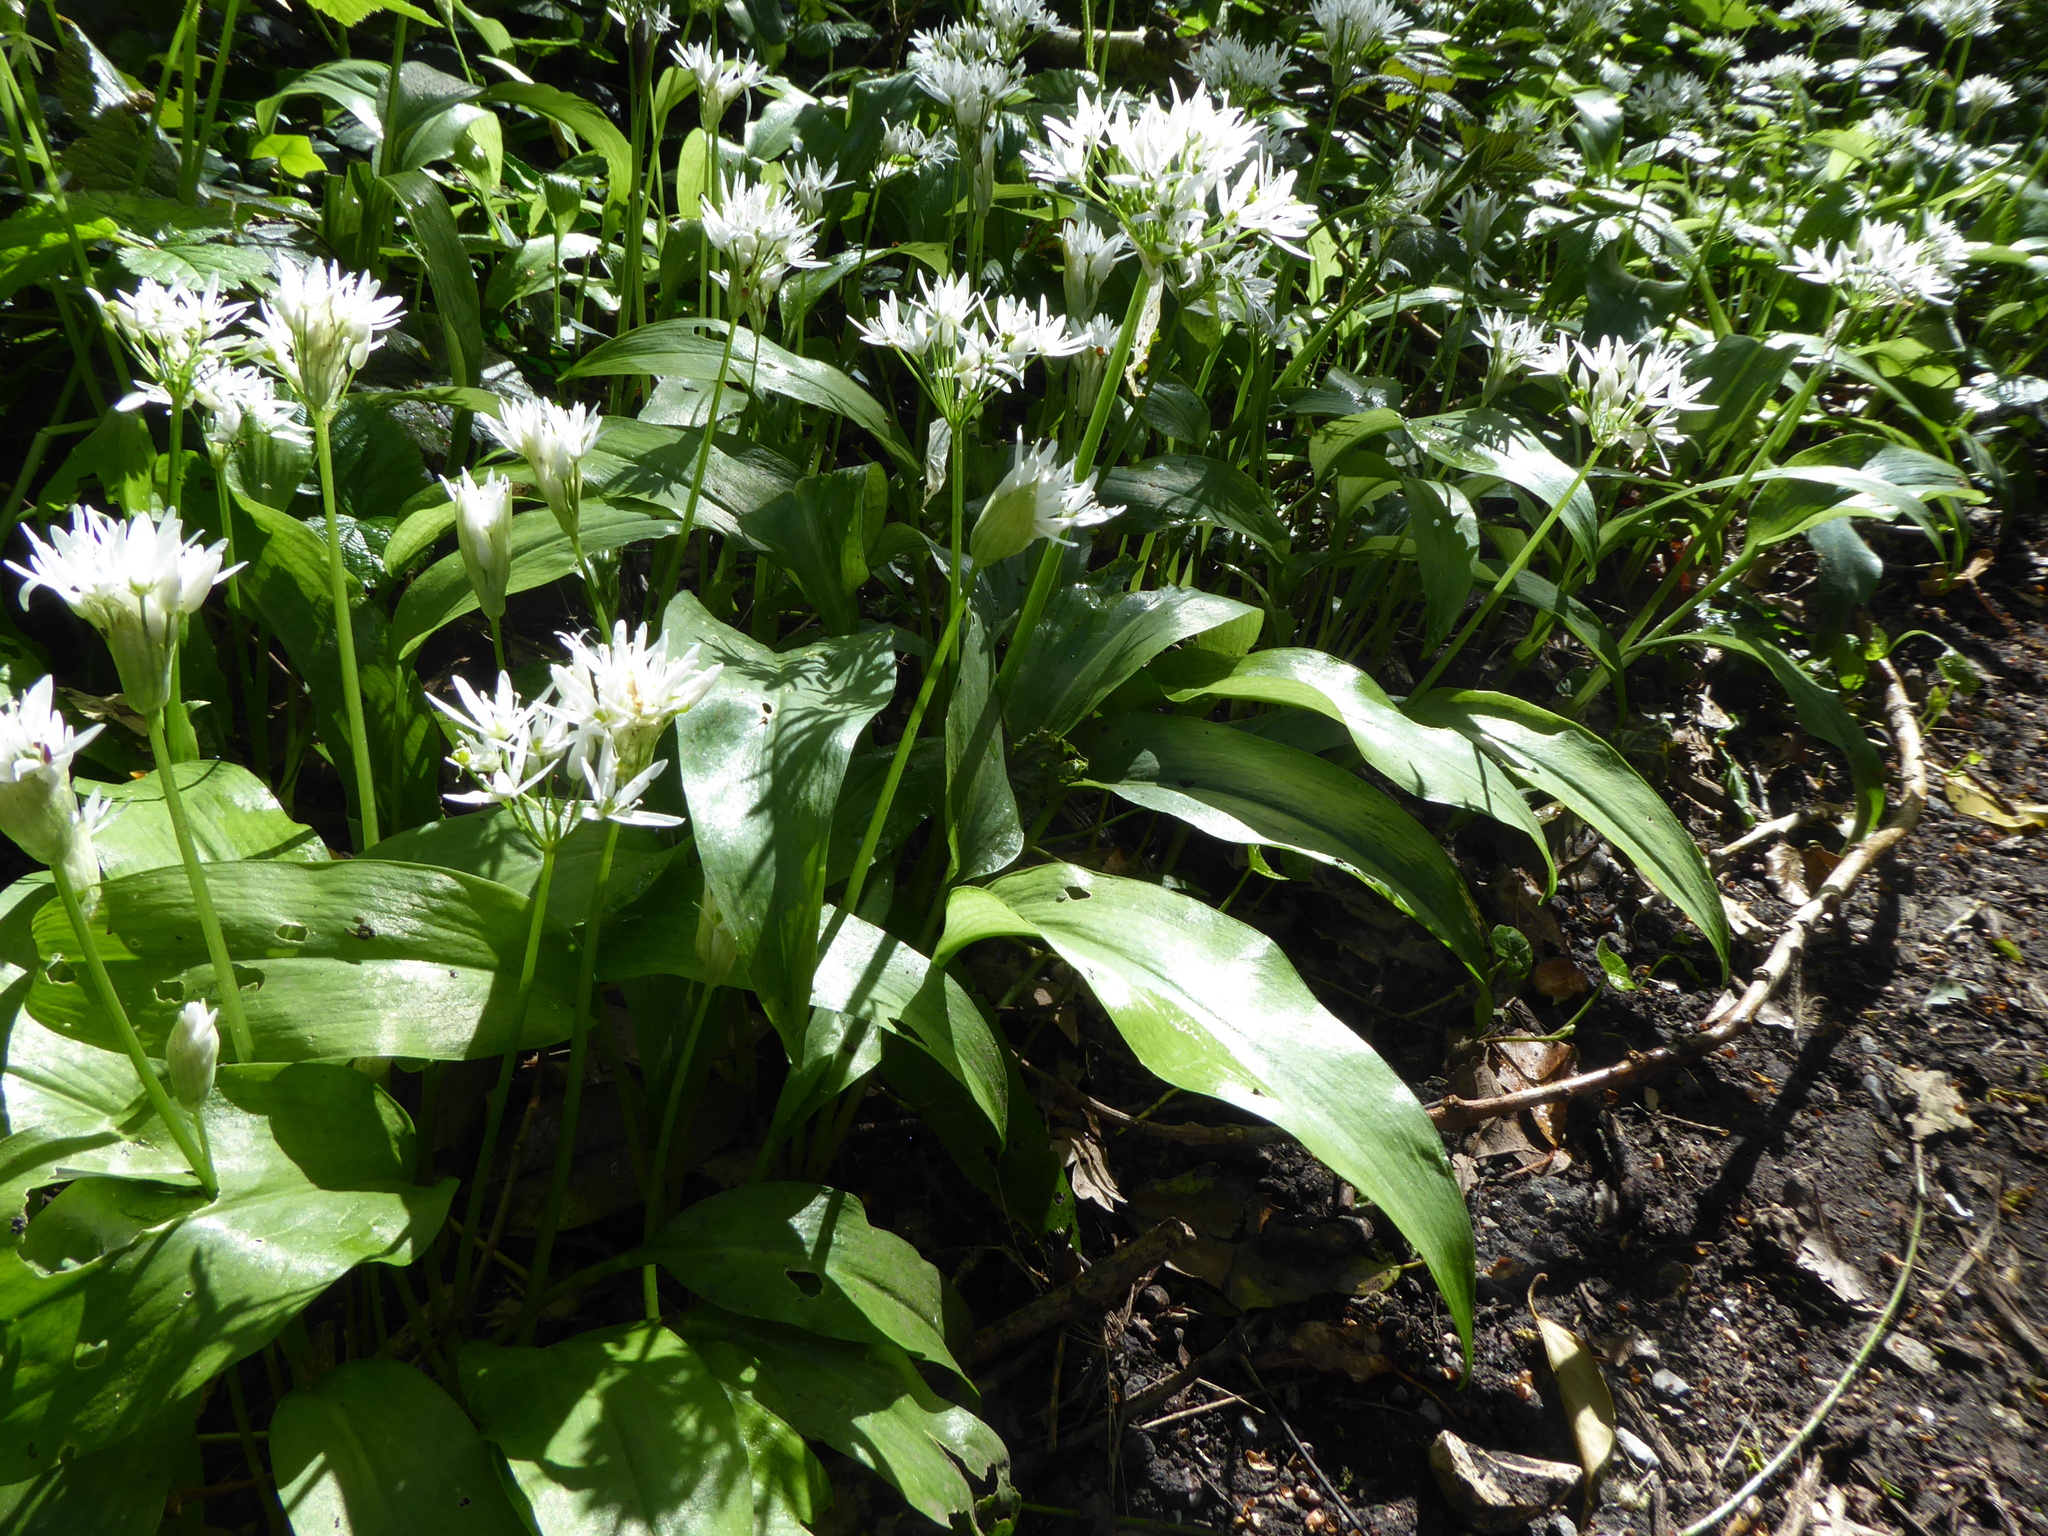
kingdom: Plantae
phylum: Tracheophyta
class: Liliopsida
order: Asparagales
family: Amaryllidaceae
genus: Allium
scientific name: Allium ursinum
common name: Ramsons
